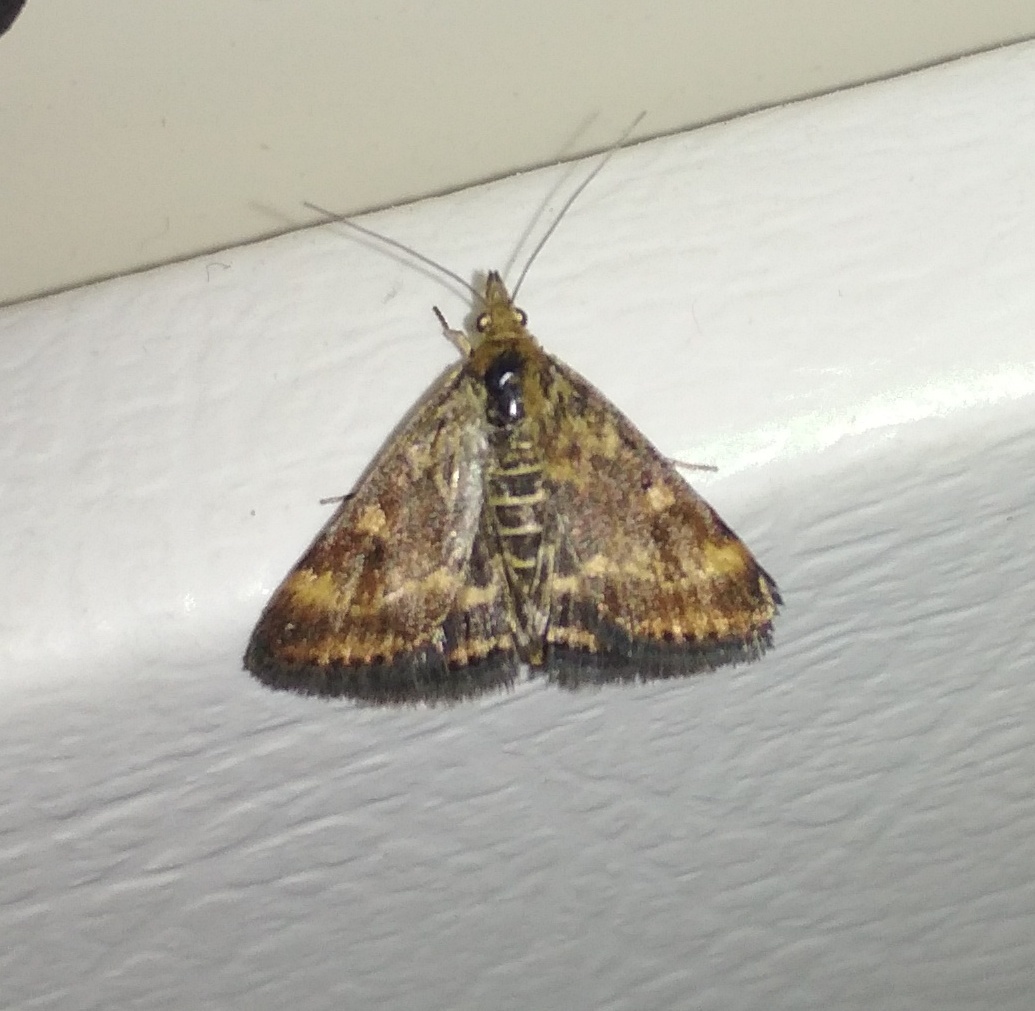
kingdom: Animalia
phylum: Arthropoda
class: Insecta
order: Lepidoptera
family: Crambidae
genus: Pyrausta
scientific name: Pyrausta despicata
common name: Straw-barred pearl
